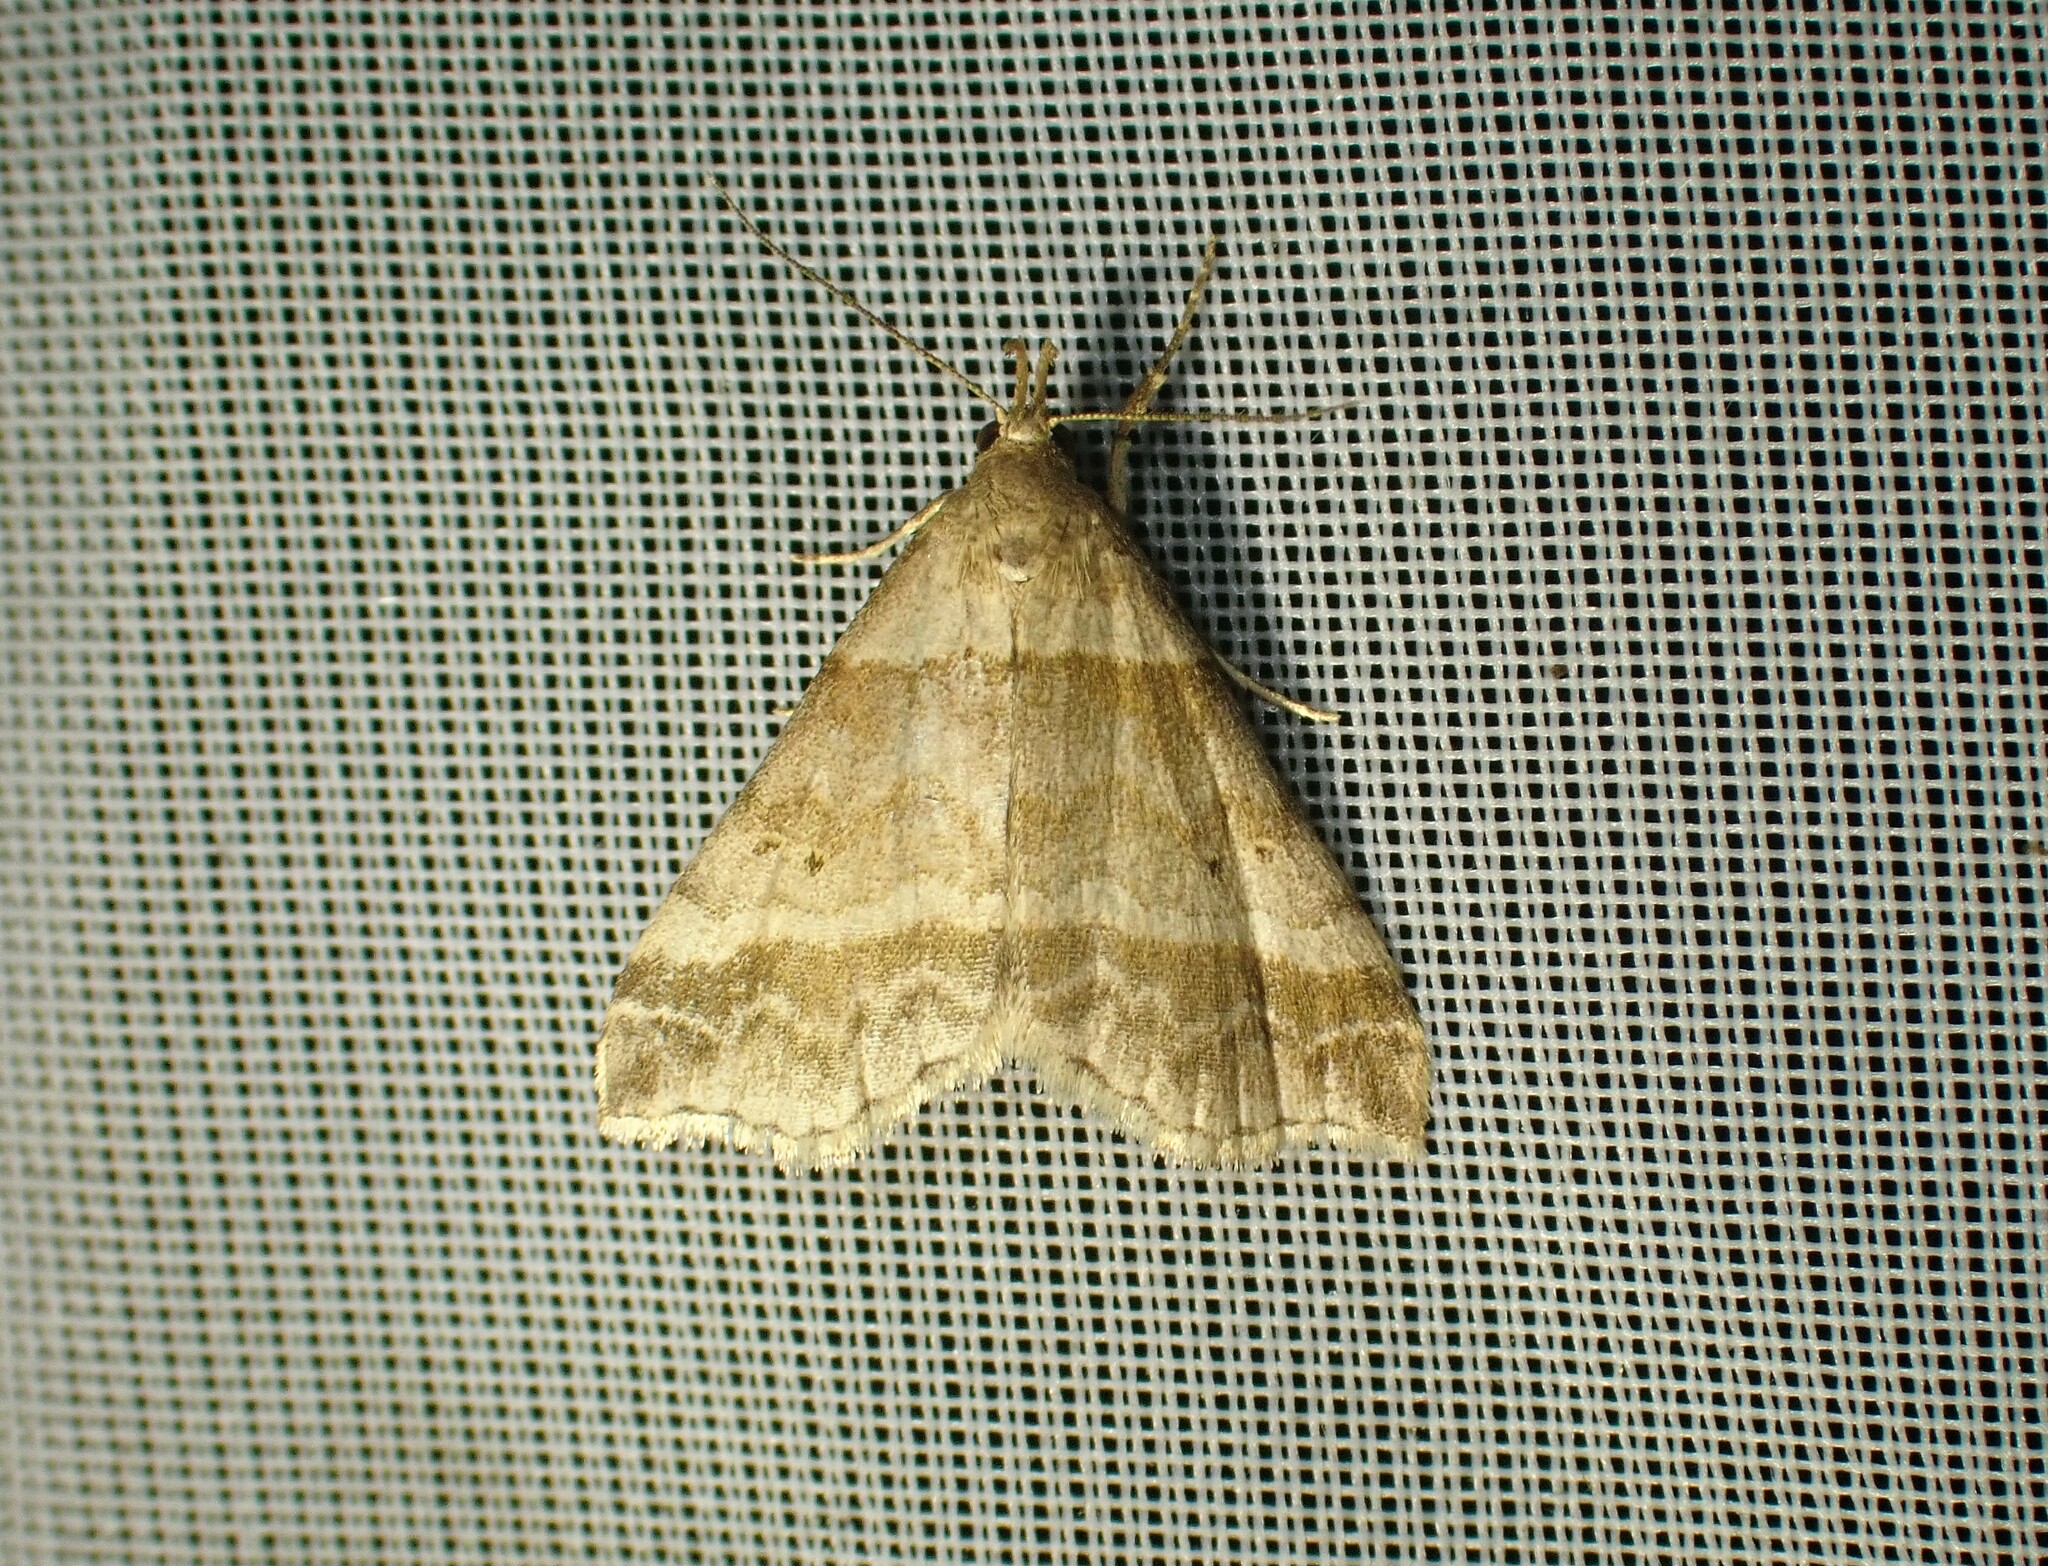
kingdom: Animalia
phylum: Arthropoda
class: Insecta
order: Lepidoptera
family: Erebidae
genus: Phaeolita
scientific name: Phaeolita pyramusalis
